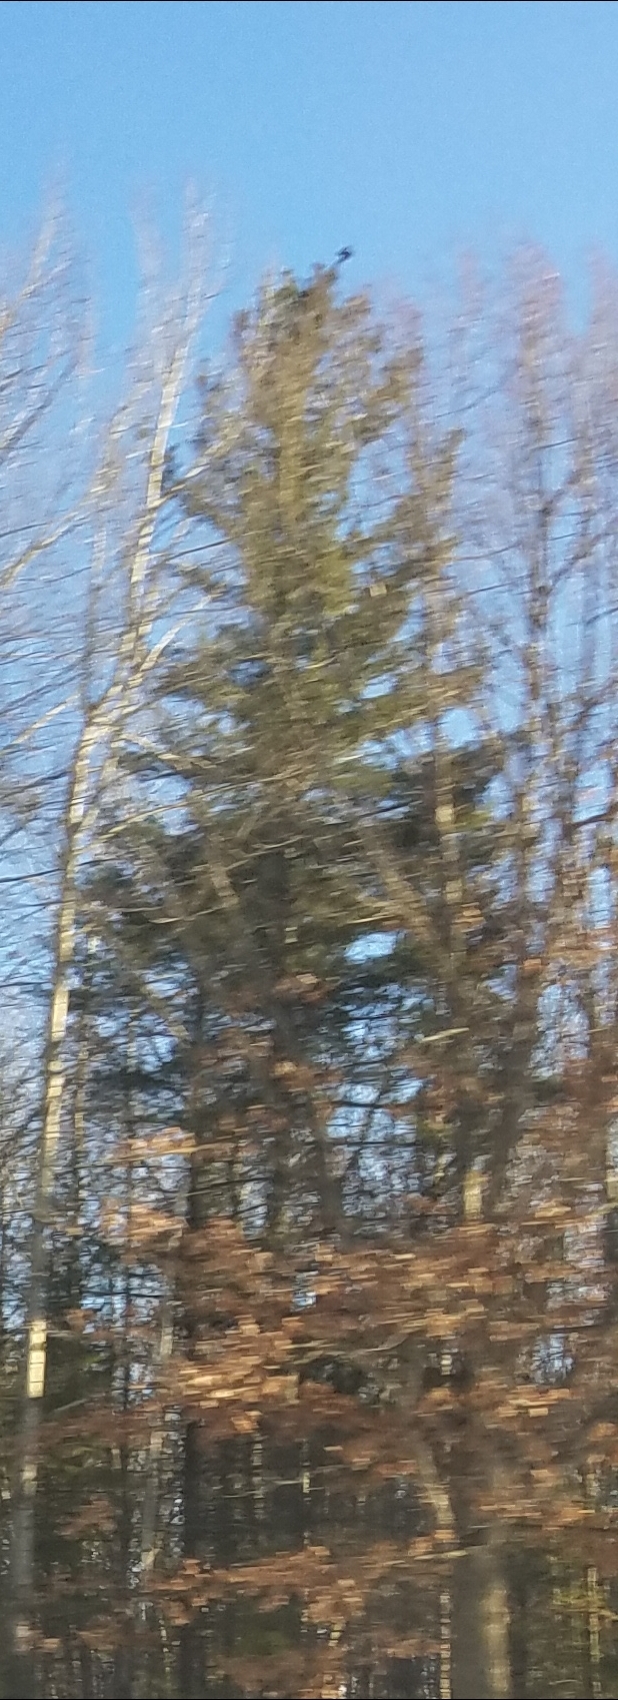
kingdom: Plantae
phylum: Tracheophyta
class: Pinopsida
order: Pinales
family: Pinaceae
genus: Pinus
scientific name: Pinus strobus
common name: Weymouth pine
